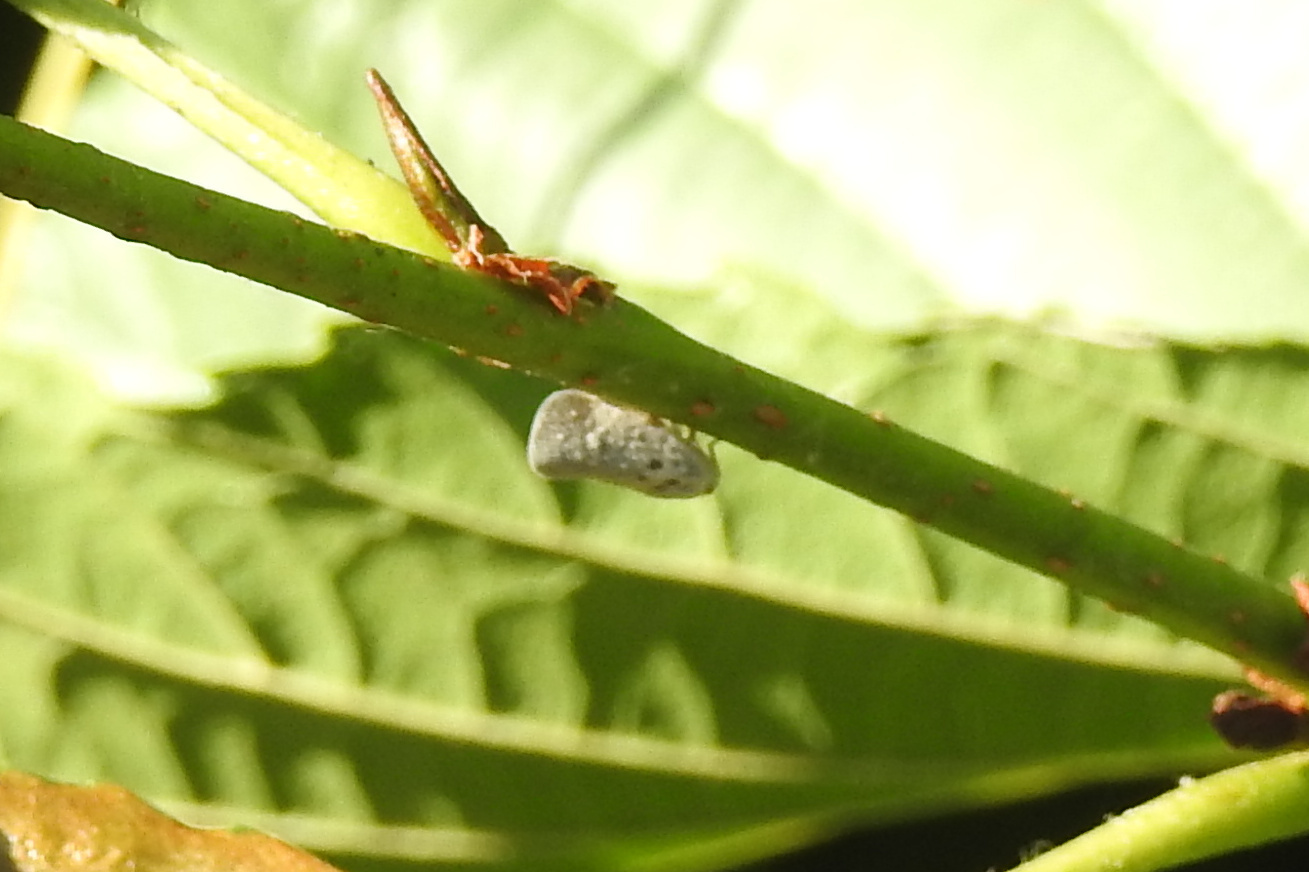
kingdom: Animalia
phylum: Arthropoda
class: Insecta
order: Hemiptera
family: Flatidae
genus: Metcalfa
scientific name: Metcalfa pruinosa
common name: Citrus flatid planthopper
